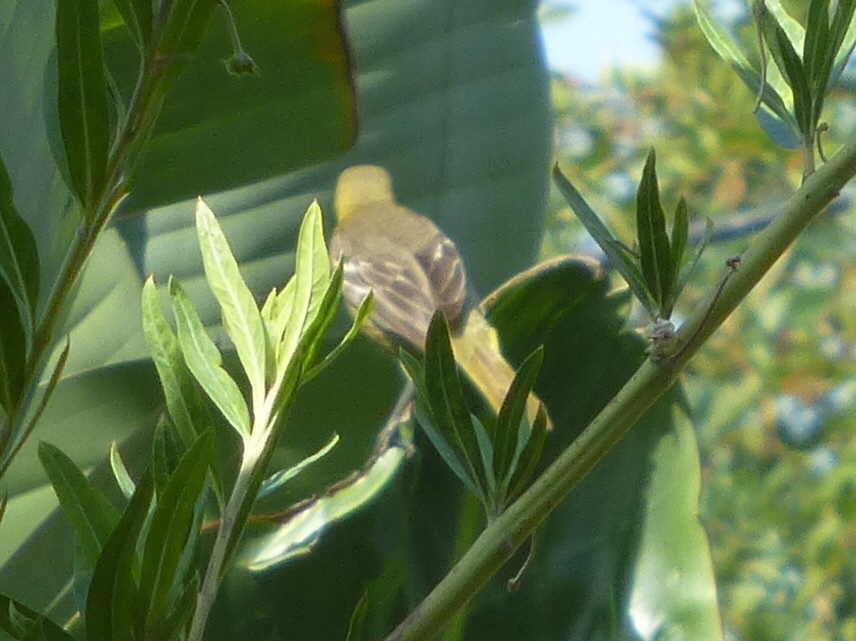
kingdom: Animalia
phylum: Chordata
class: Aves
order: Passeriformes
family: Icteridae
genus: Icterus
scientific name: Icterus cucullatus
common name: Hooded oriole
